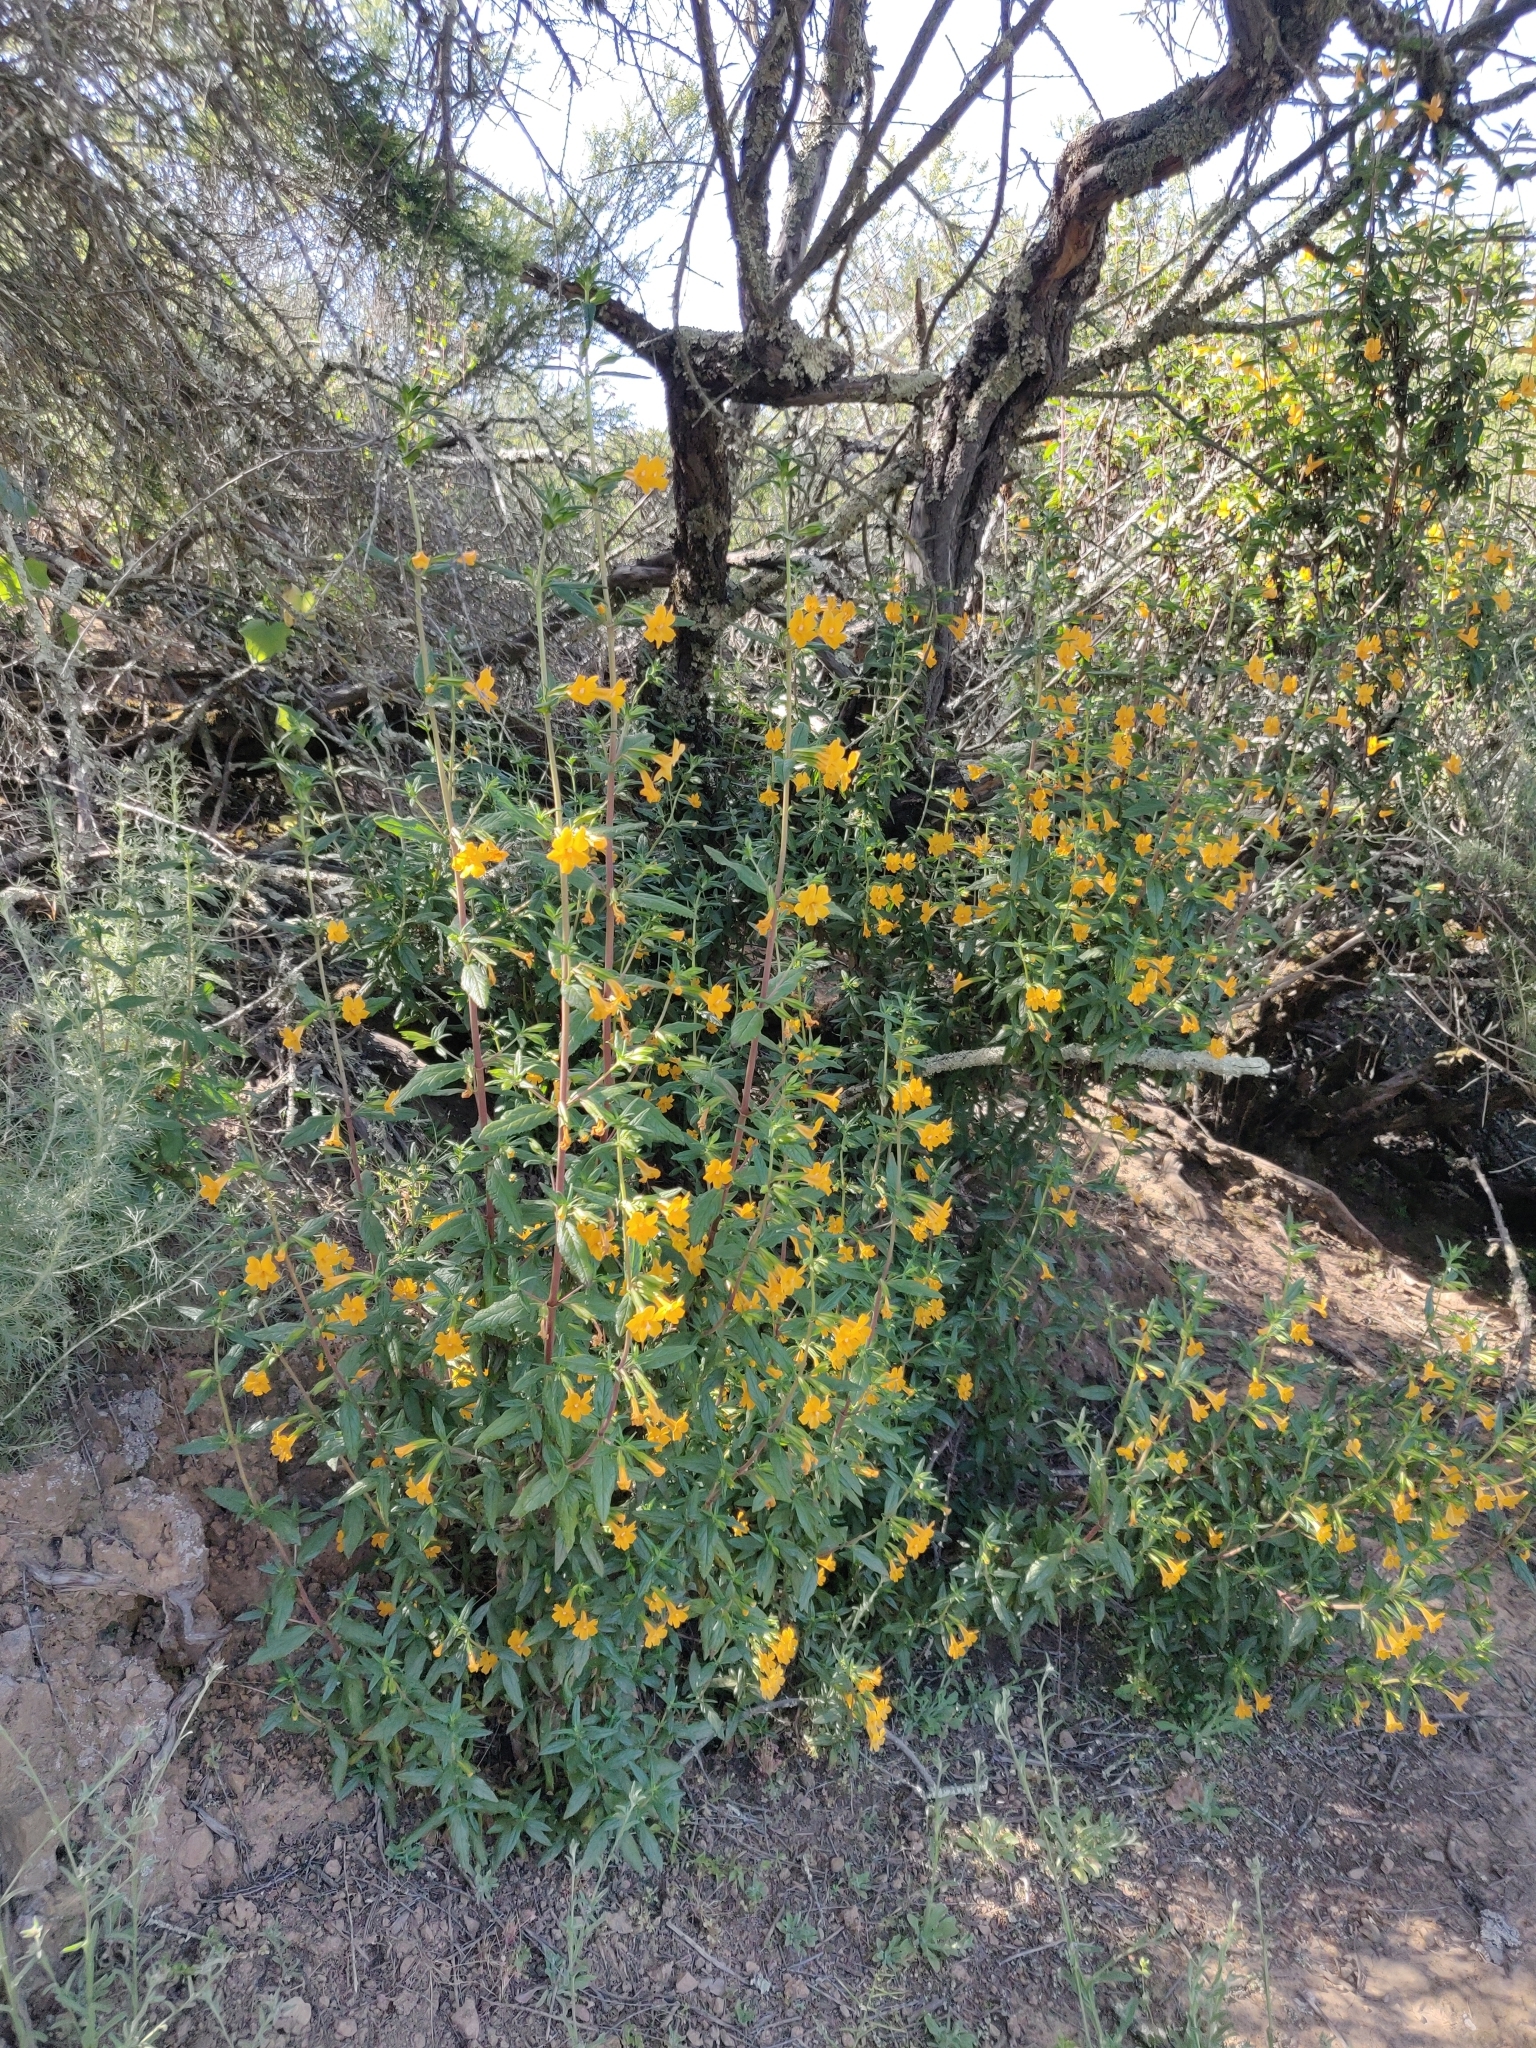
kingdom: Plantae
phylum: Tracheophyta
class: Magnoliopsida
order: Lamiales
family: Phrymaceae
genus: Diplacus
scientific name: Diplacus aurantiacus
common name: Bush monkey-flower
